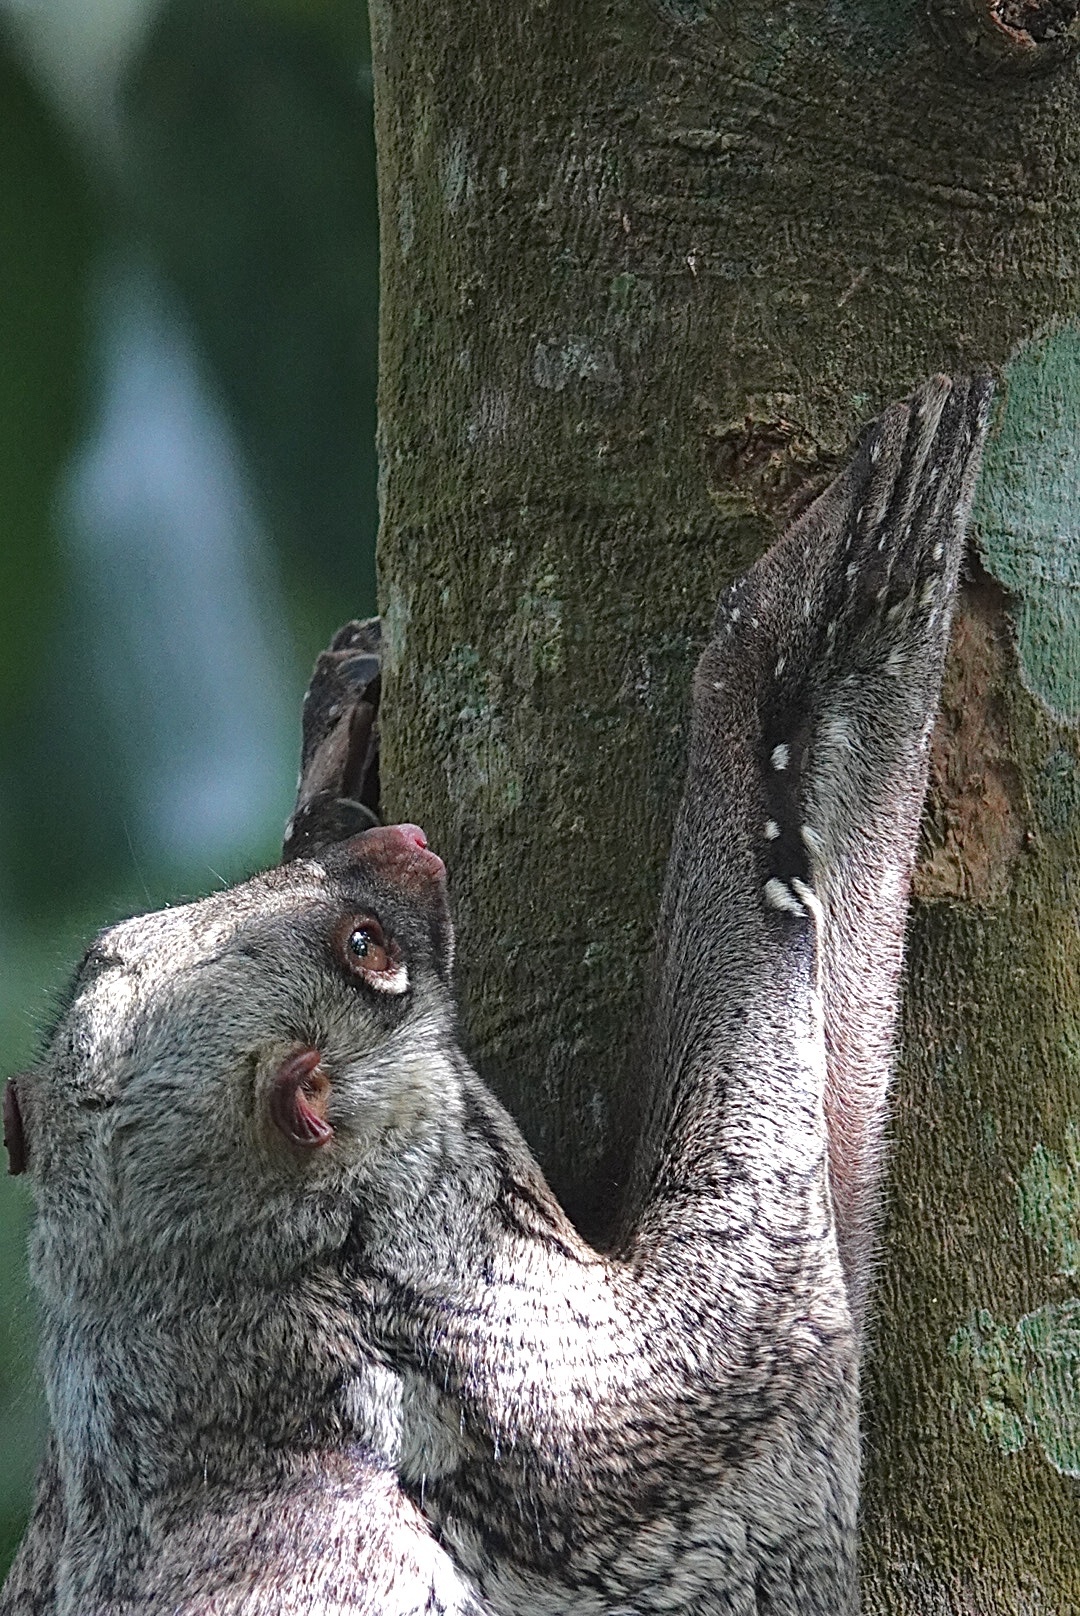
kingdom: Animalia
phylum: Chordata
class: Mammalia
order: Dermoptera
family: Cynocephalidae
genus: Galeopterus
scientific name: Galeopterus variegatus
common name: Sunda flying lemur
